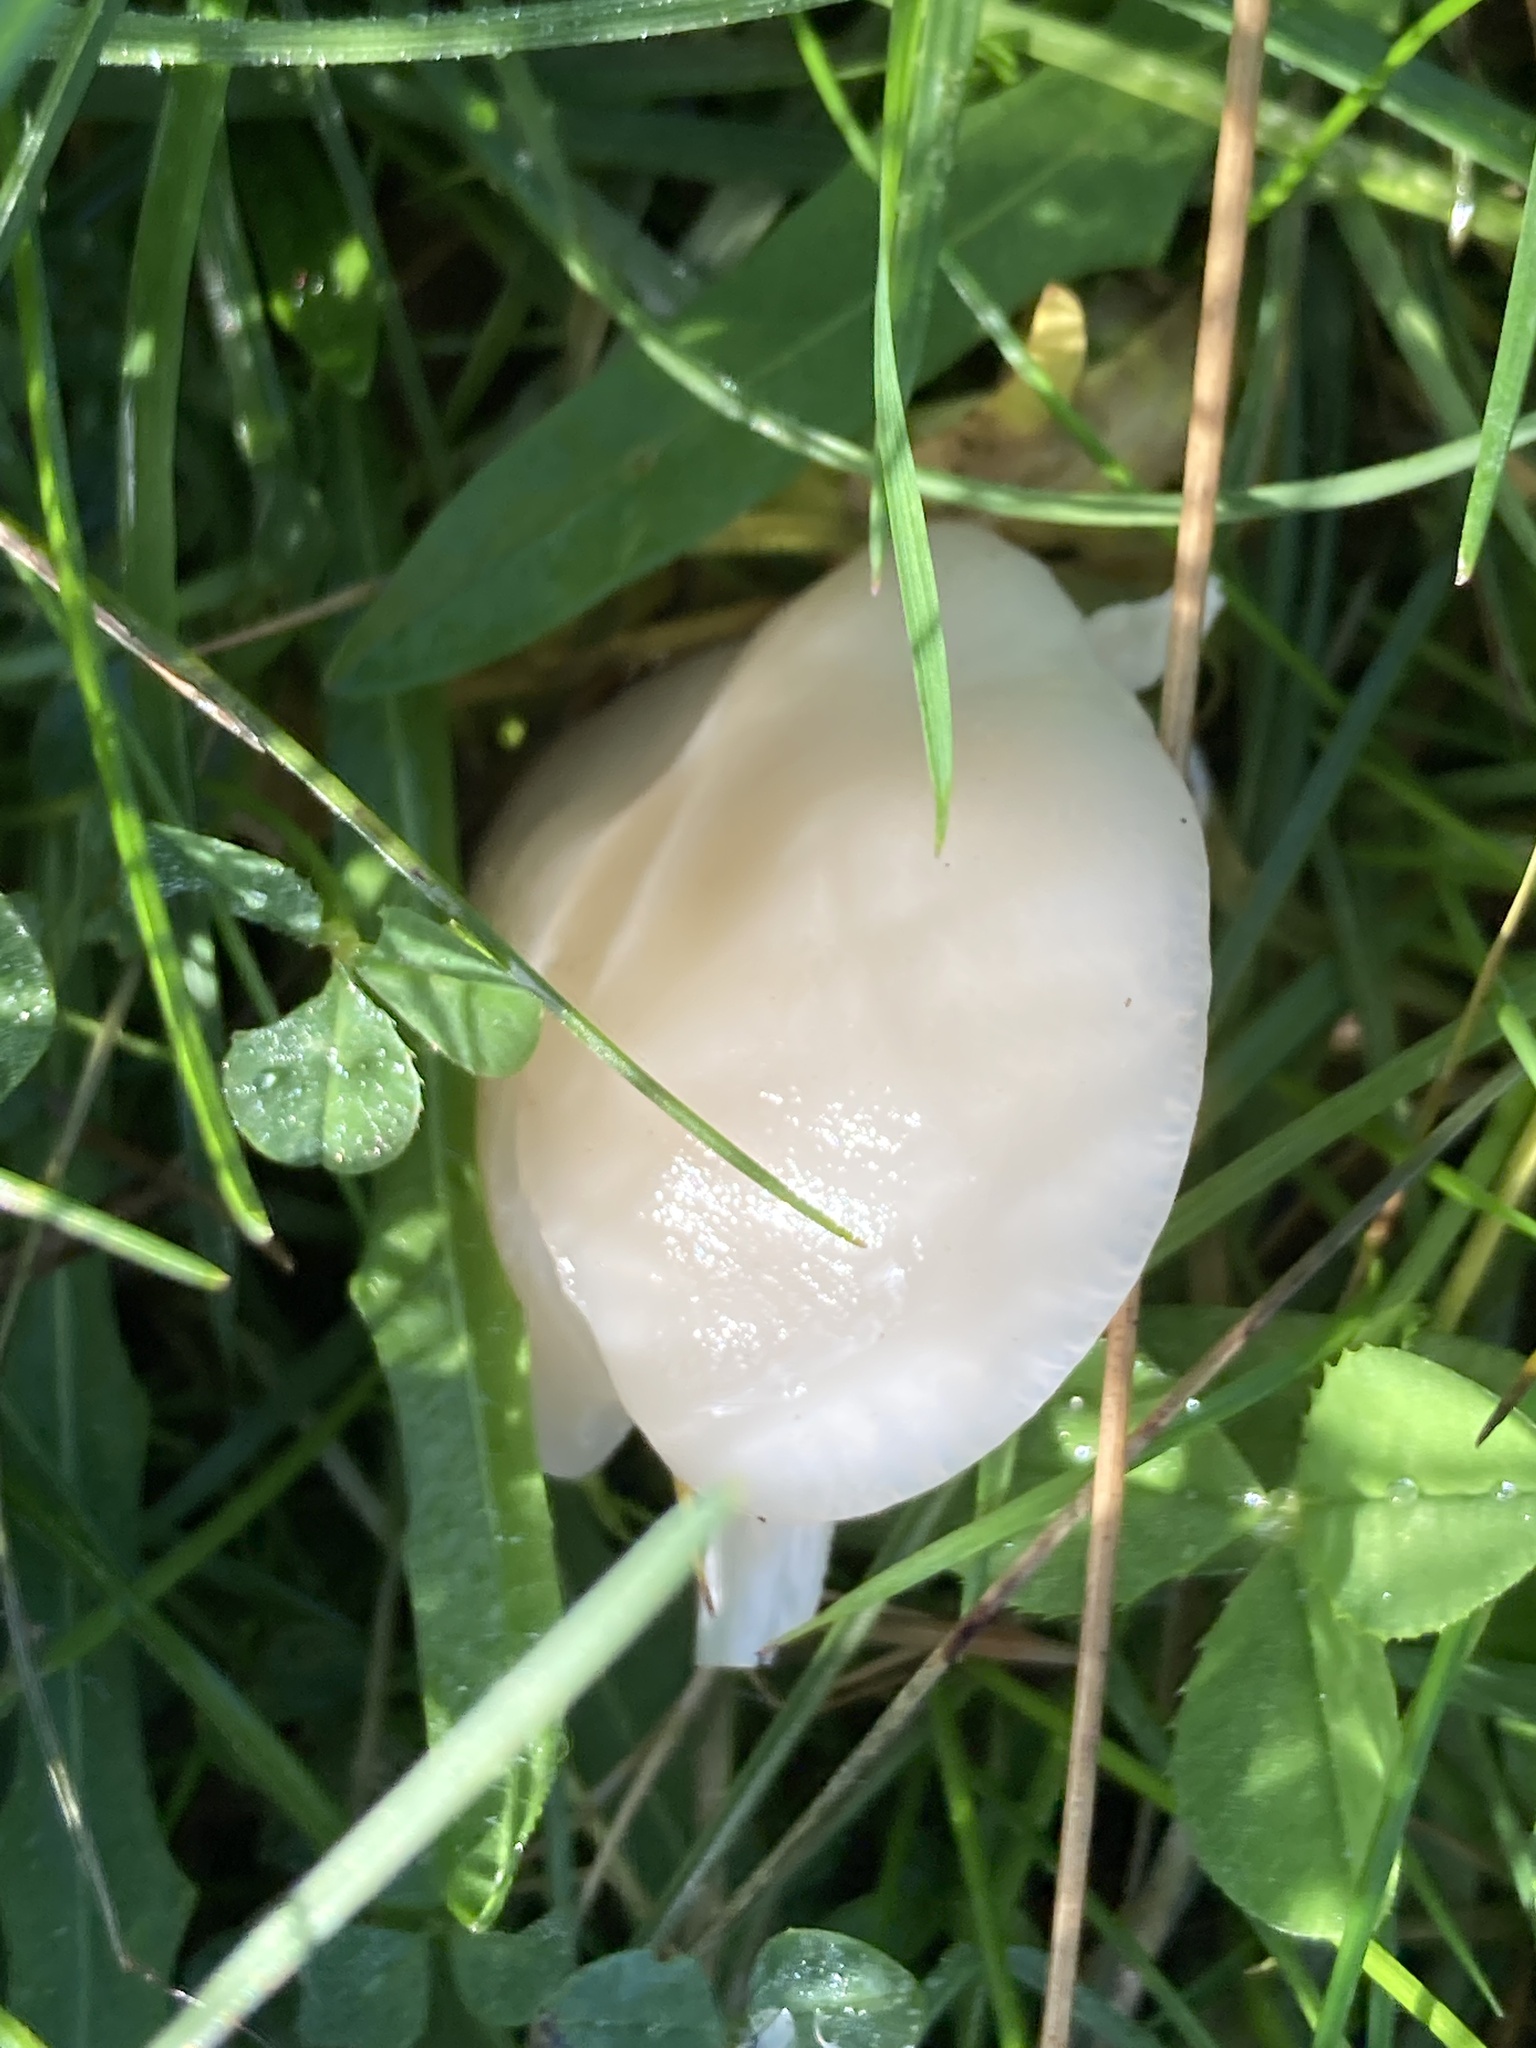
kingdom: Fungi
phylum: Basidiomycota
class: Agaricomycetes
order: Agaricales
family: Hygrophoraceae
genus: Cuphophyllus
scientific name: Cuphophyllus virgineus
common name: Snowy waxcap
